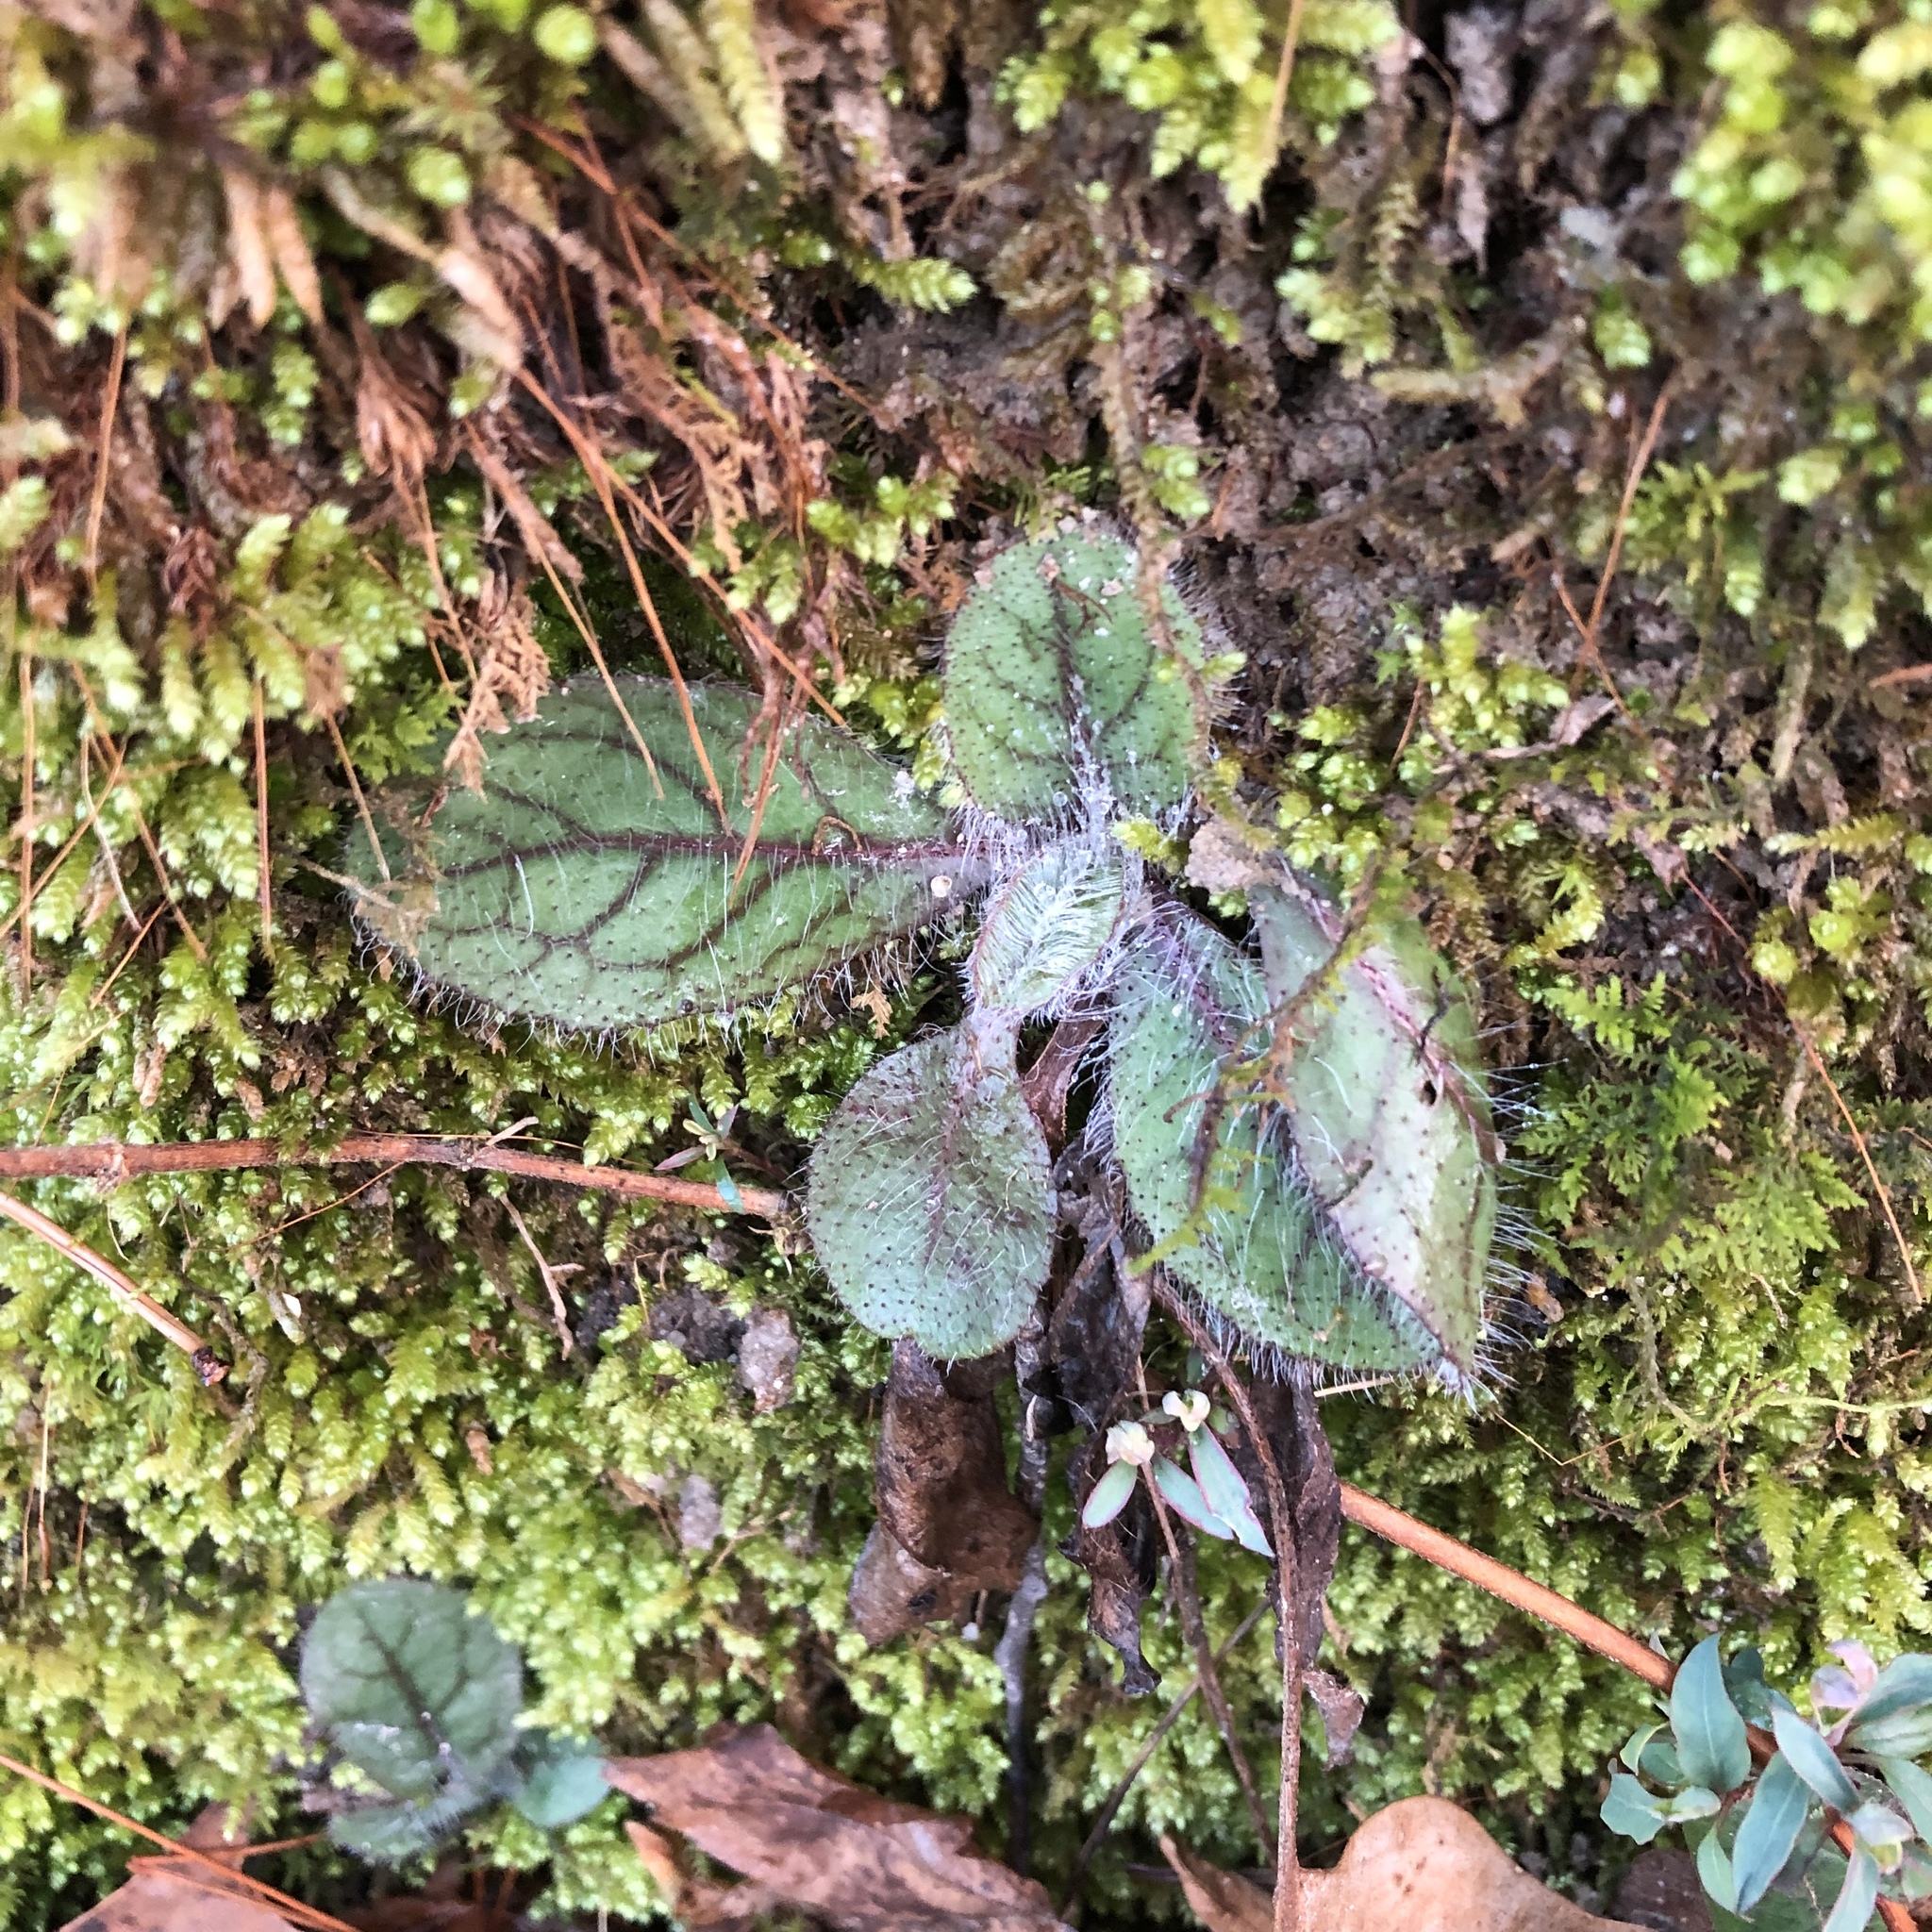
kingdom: Plantae
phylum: Tracheophyta
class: Magnoliopsida
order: Asterales
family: Asteraceae
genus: Hieracium
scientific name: Hieracium venosum
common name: Rattlesnake hawkweed
